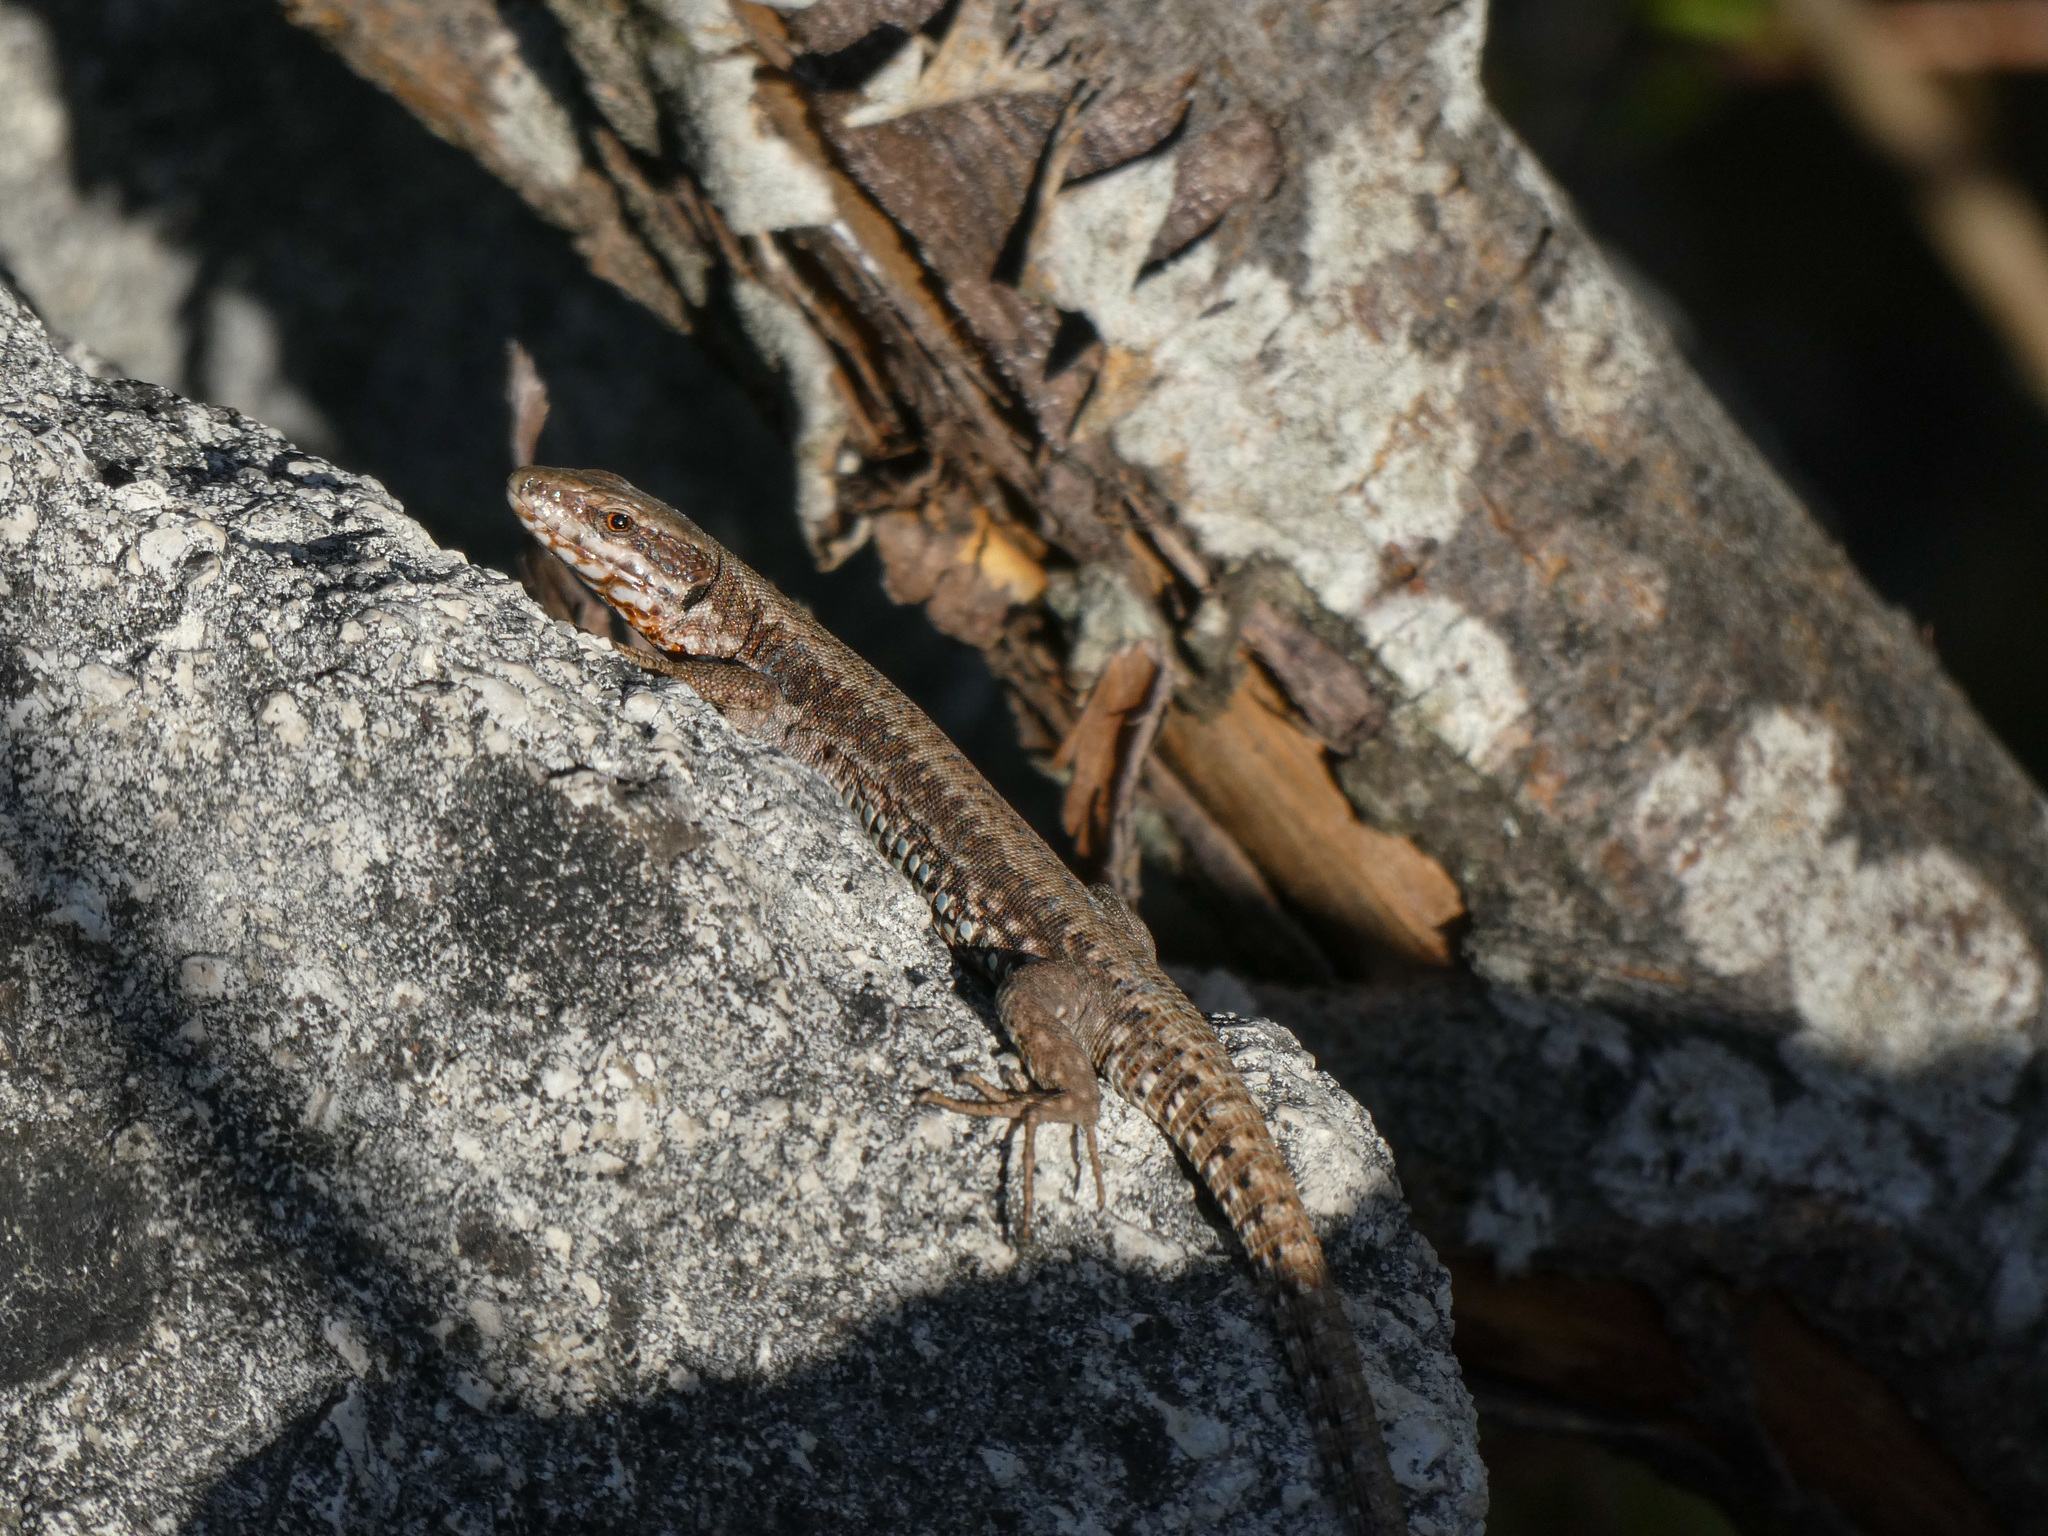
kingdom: Animalia
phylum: Chordata
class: Squamata
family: Lacertidae
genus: Podarcis
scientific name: Podarcis muralis
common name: Common wall lizard
